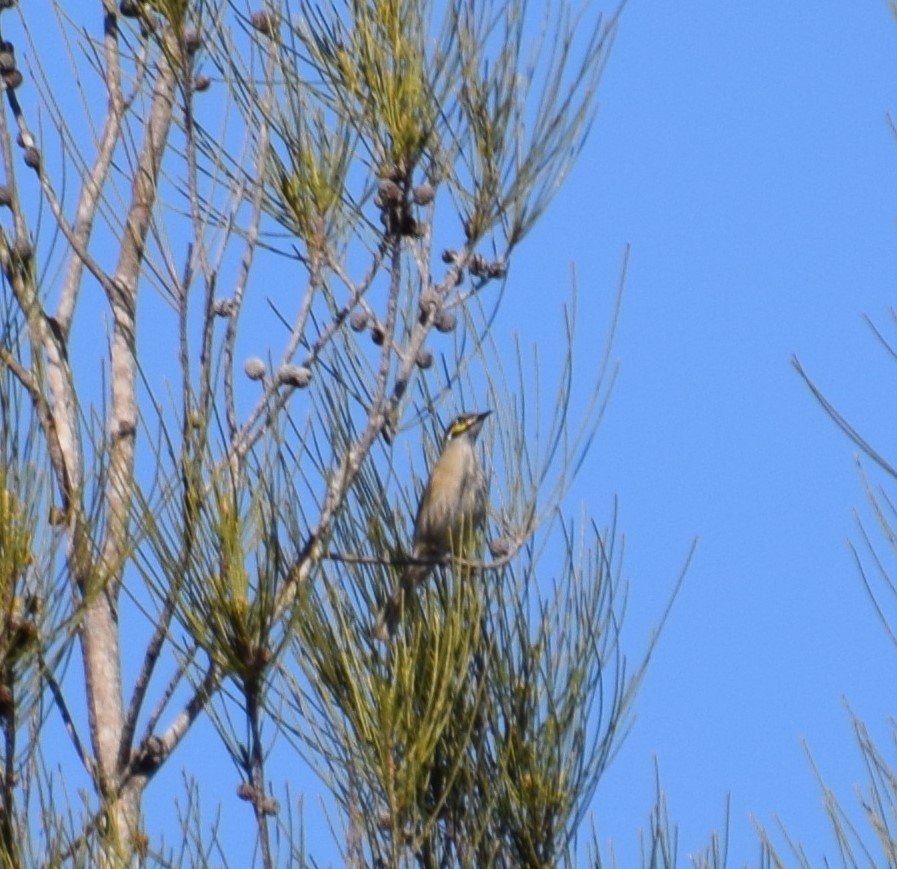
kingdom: Animalia
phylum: Chordata
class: Aves
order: Passeriformes
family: Meliphagidae
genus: Caligavis
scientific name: Caligavis chrysops
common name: Yellow-faced honeyeater
